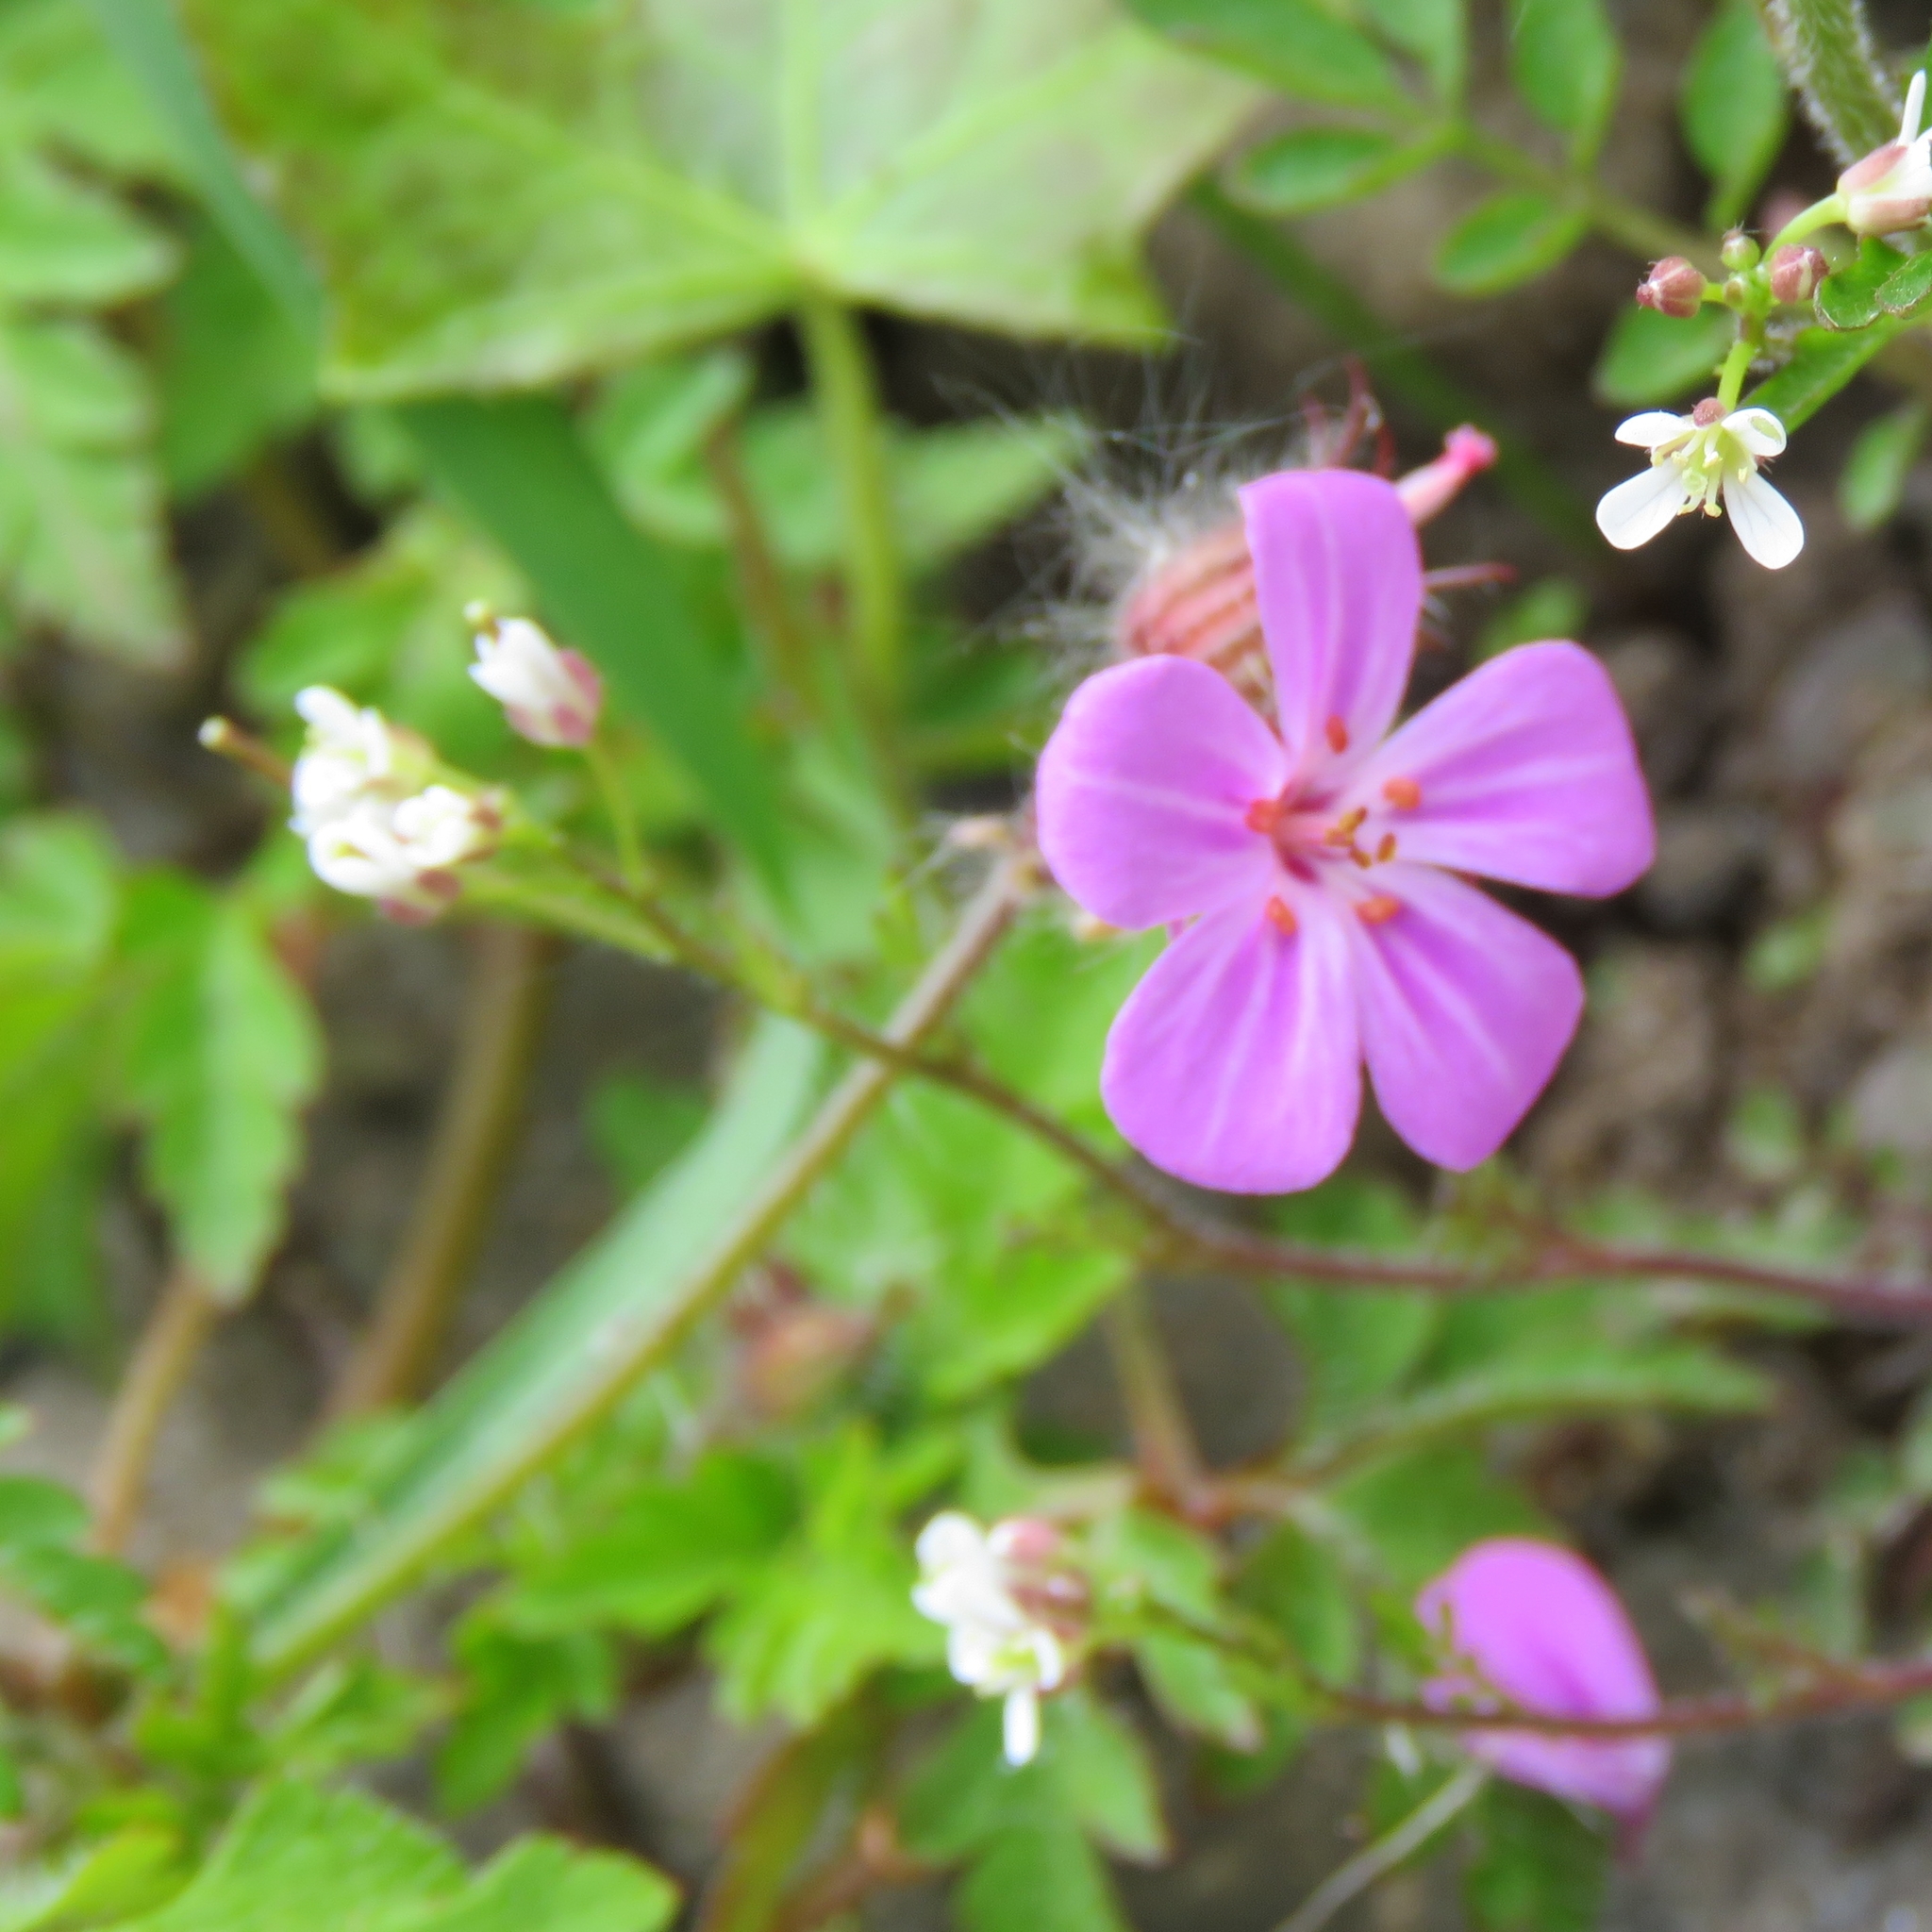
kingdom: Plantae
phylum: Tracheophyta
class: Magnoliopsida
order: Geraniales
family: Geraniaceae
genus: Geranium
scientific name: Geranium robertianum
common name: Herb-robert
